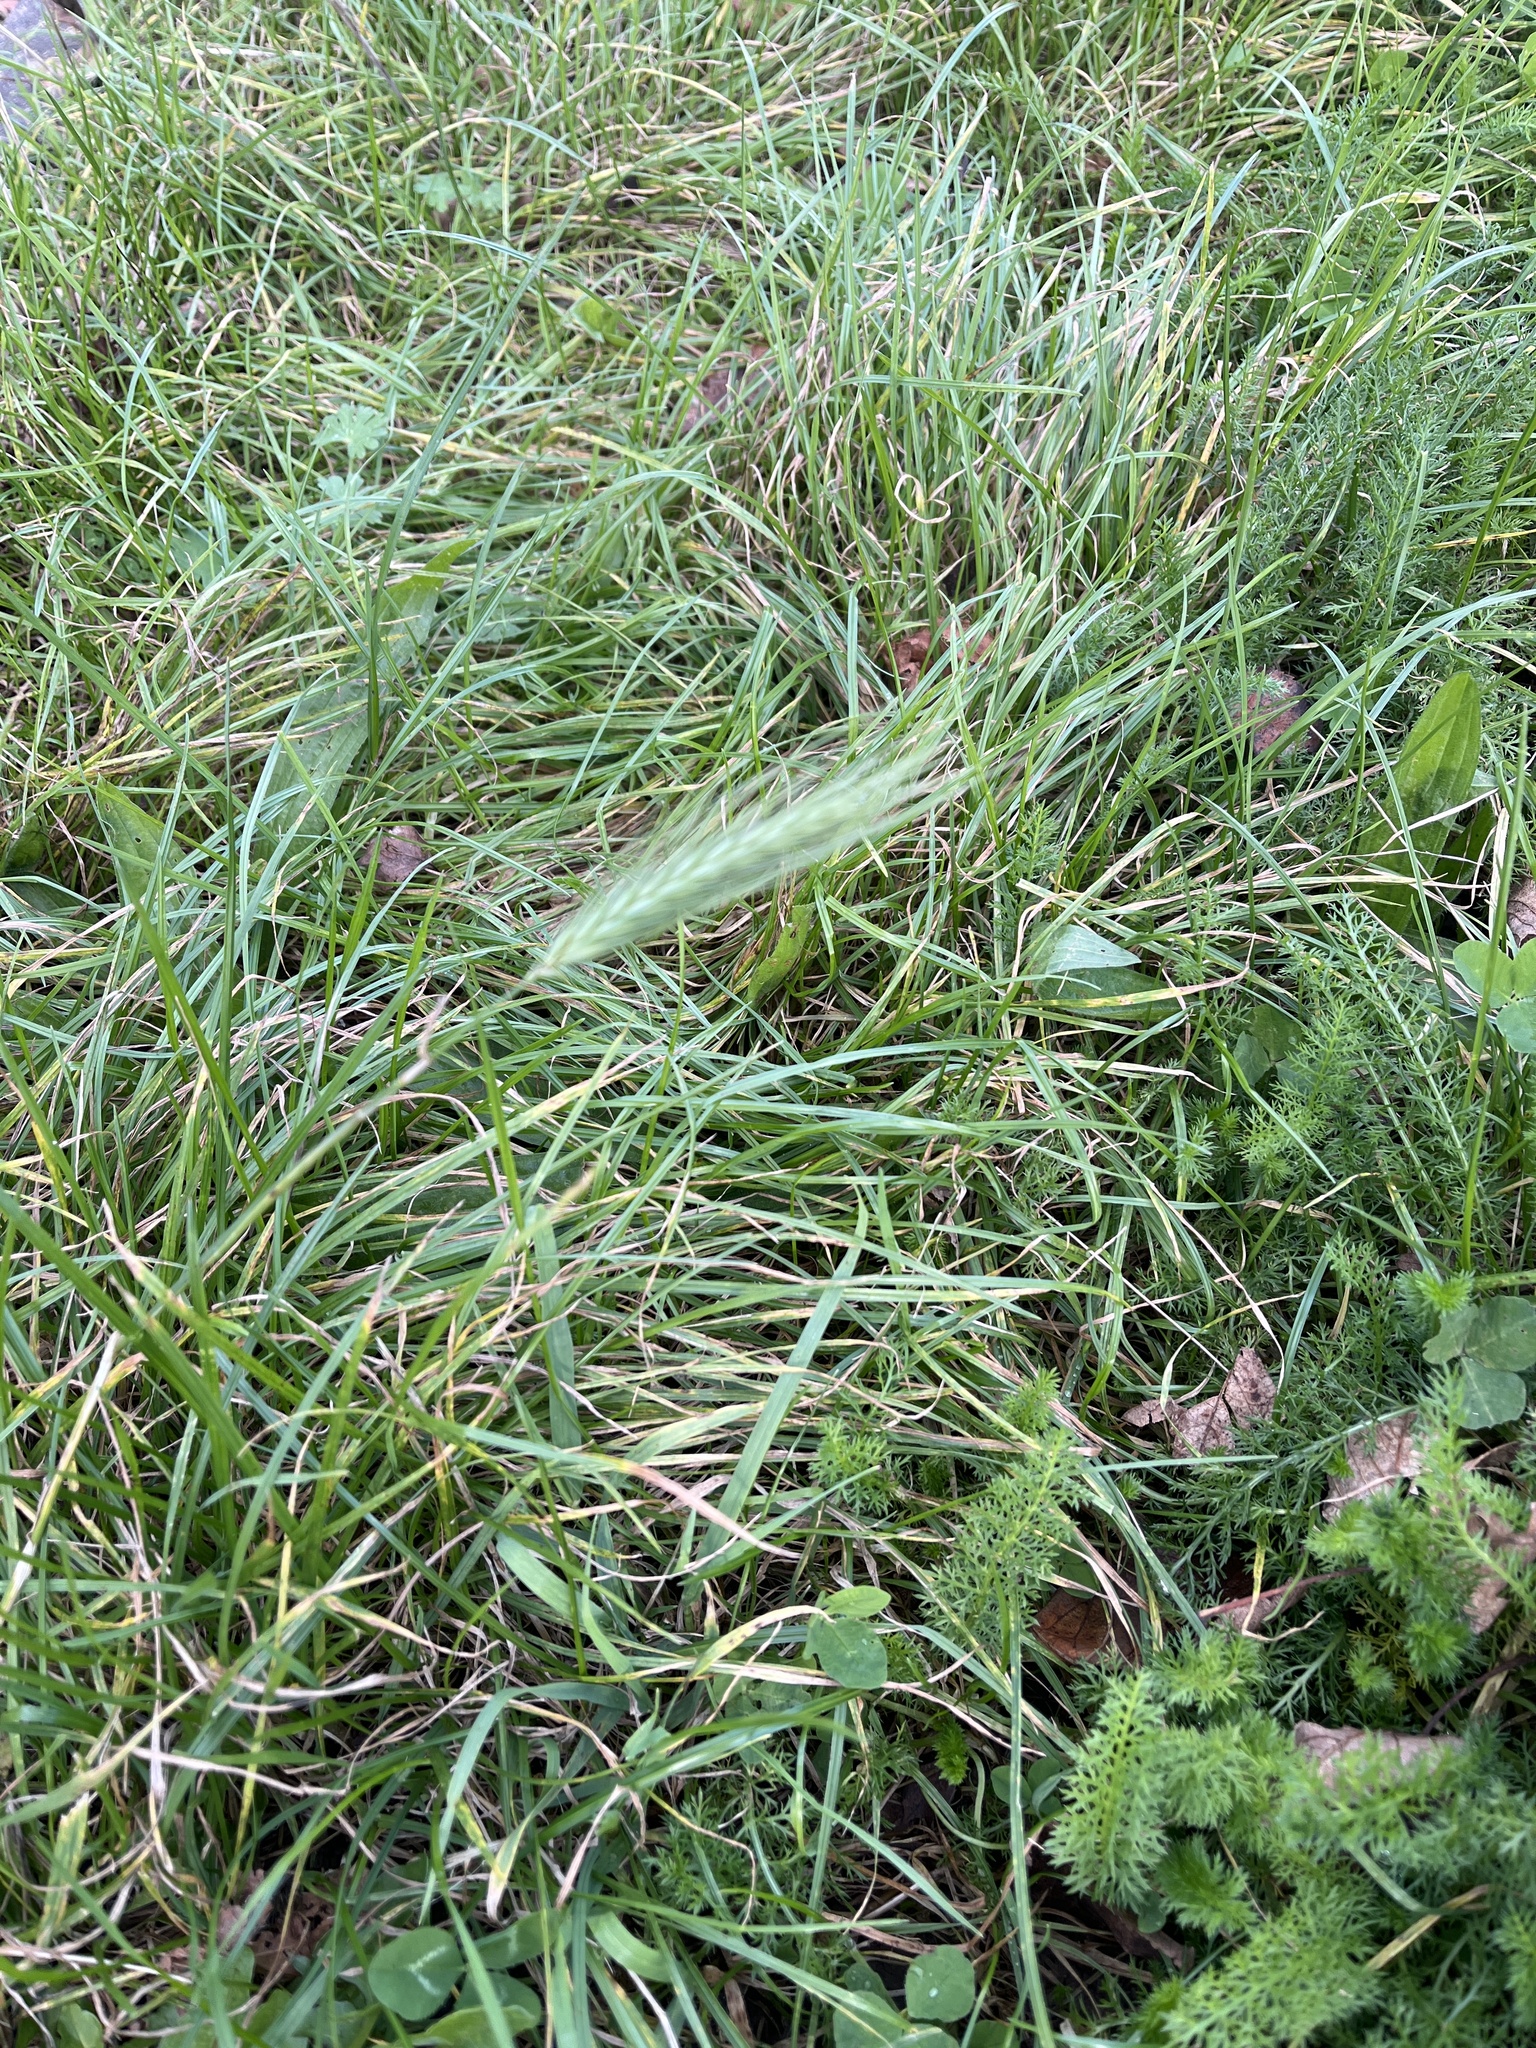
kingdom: Plantae
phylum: Tracheophyta
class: Liliopsida
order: Poales
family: Poaceae
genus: Hordeum
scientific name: Hordeum murinum
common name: Wall barley
